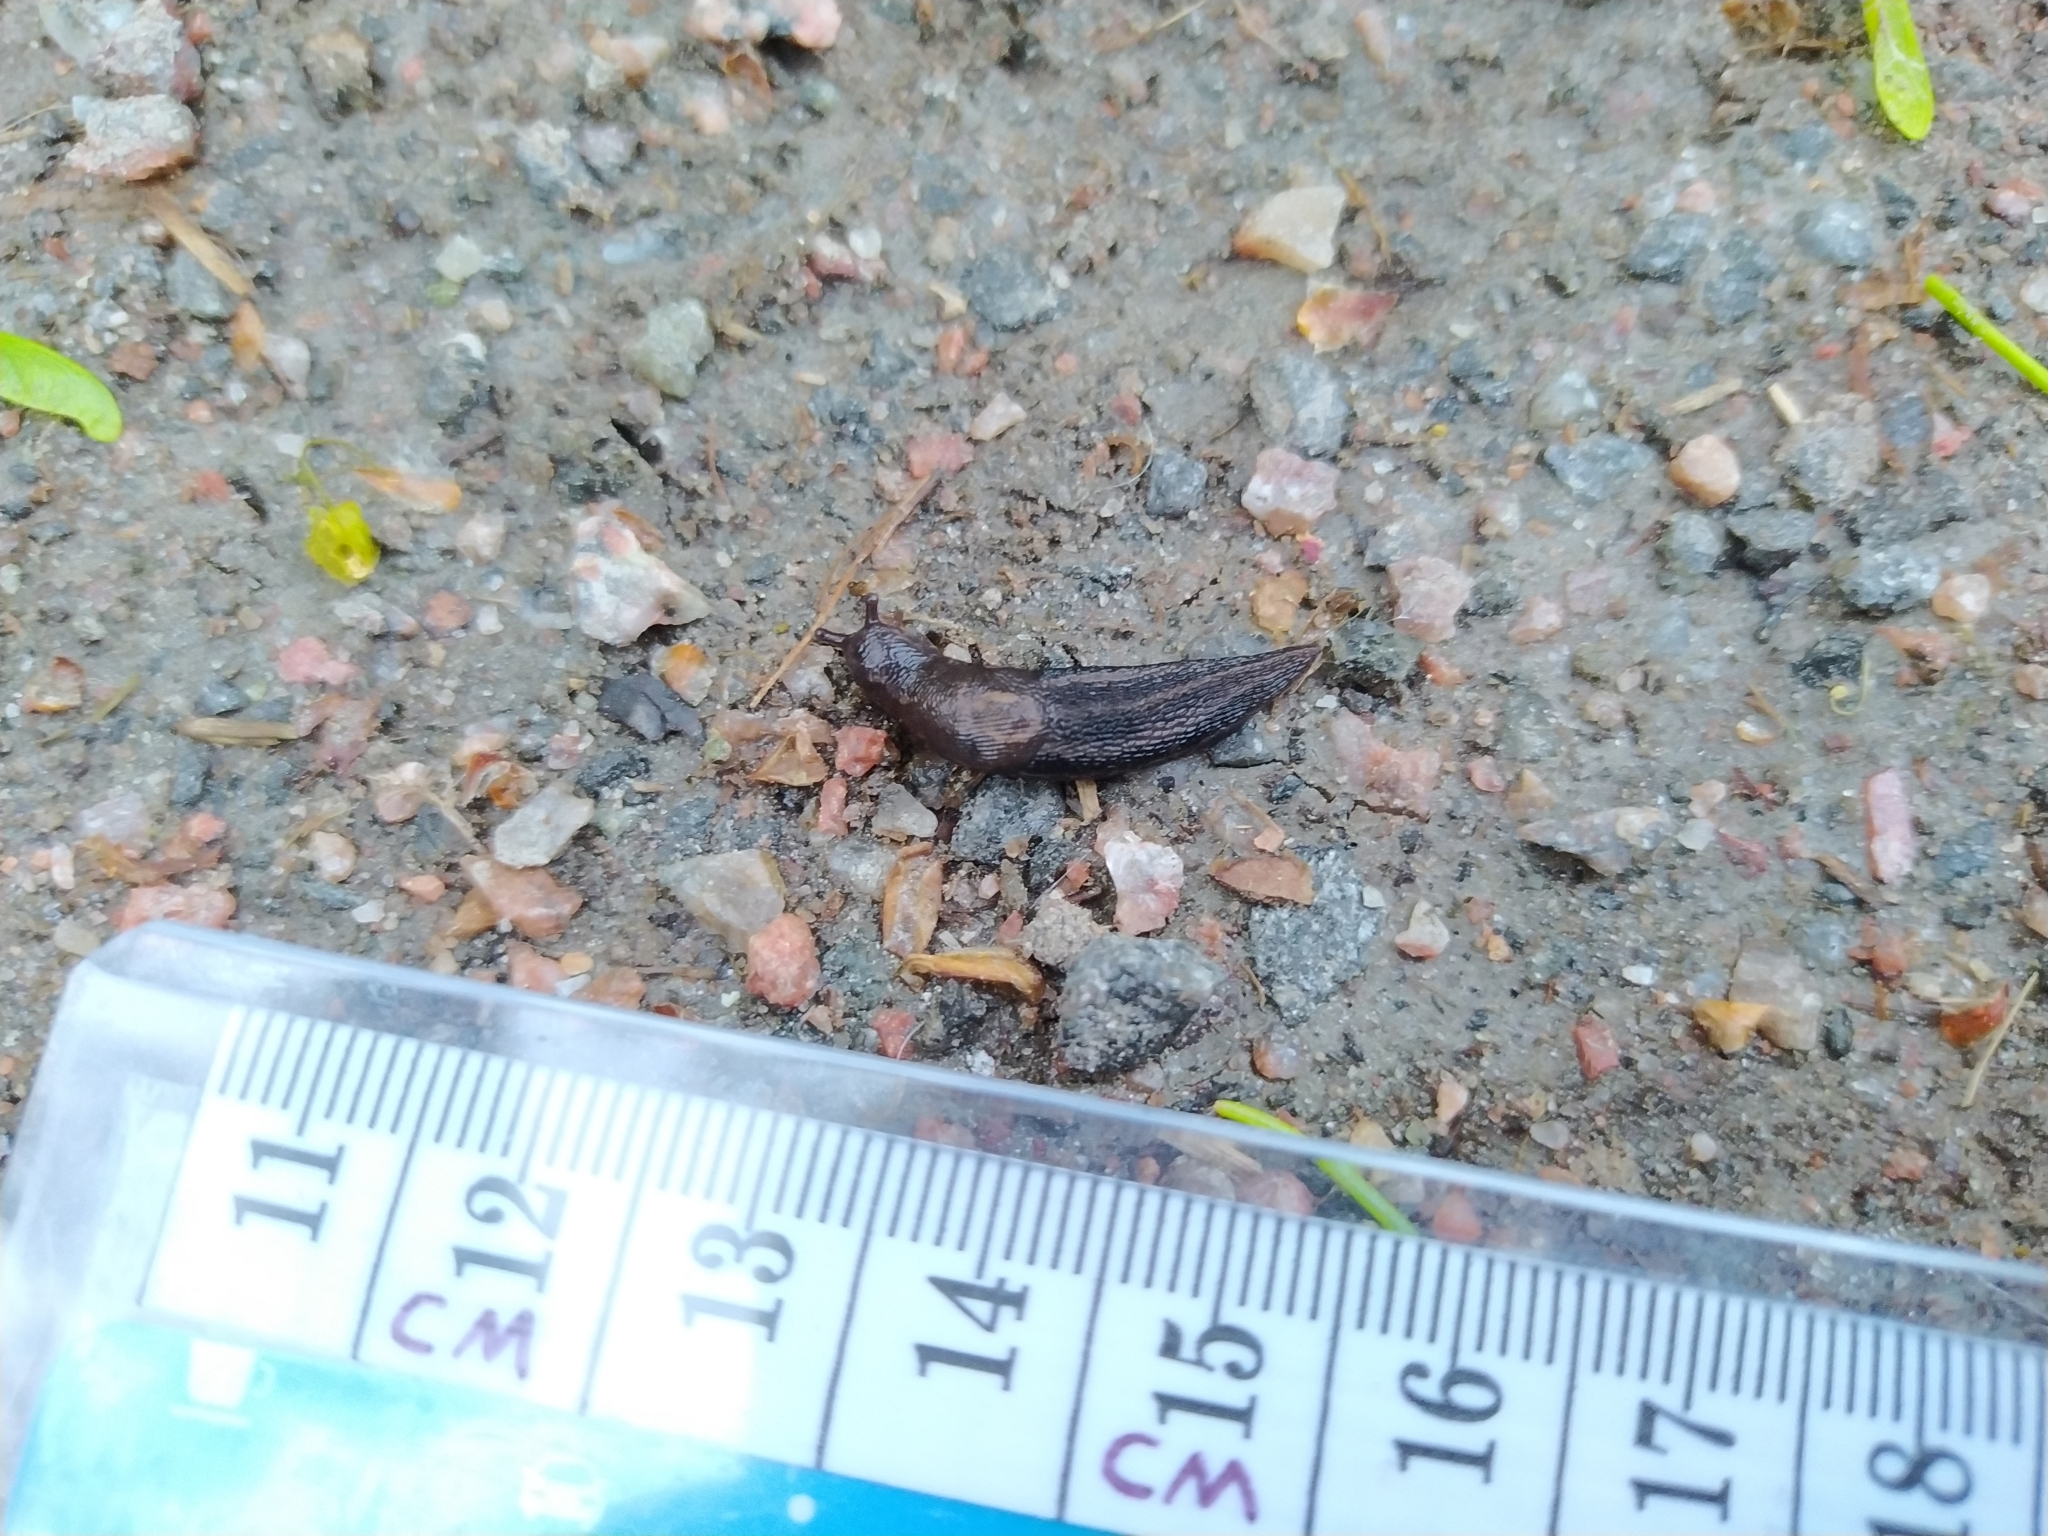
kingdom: Animalia
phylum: Mollusca
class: Gastropoda
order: Stylommatophora
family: Limacidae
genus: Limax
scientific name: Limax maximus
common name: Great grey slug
